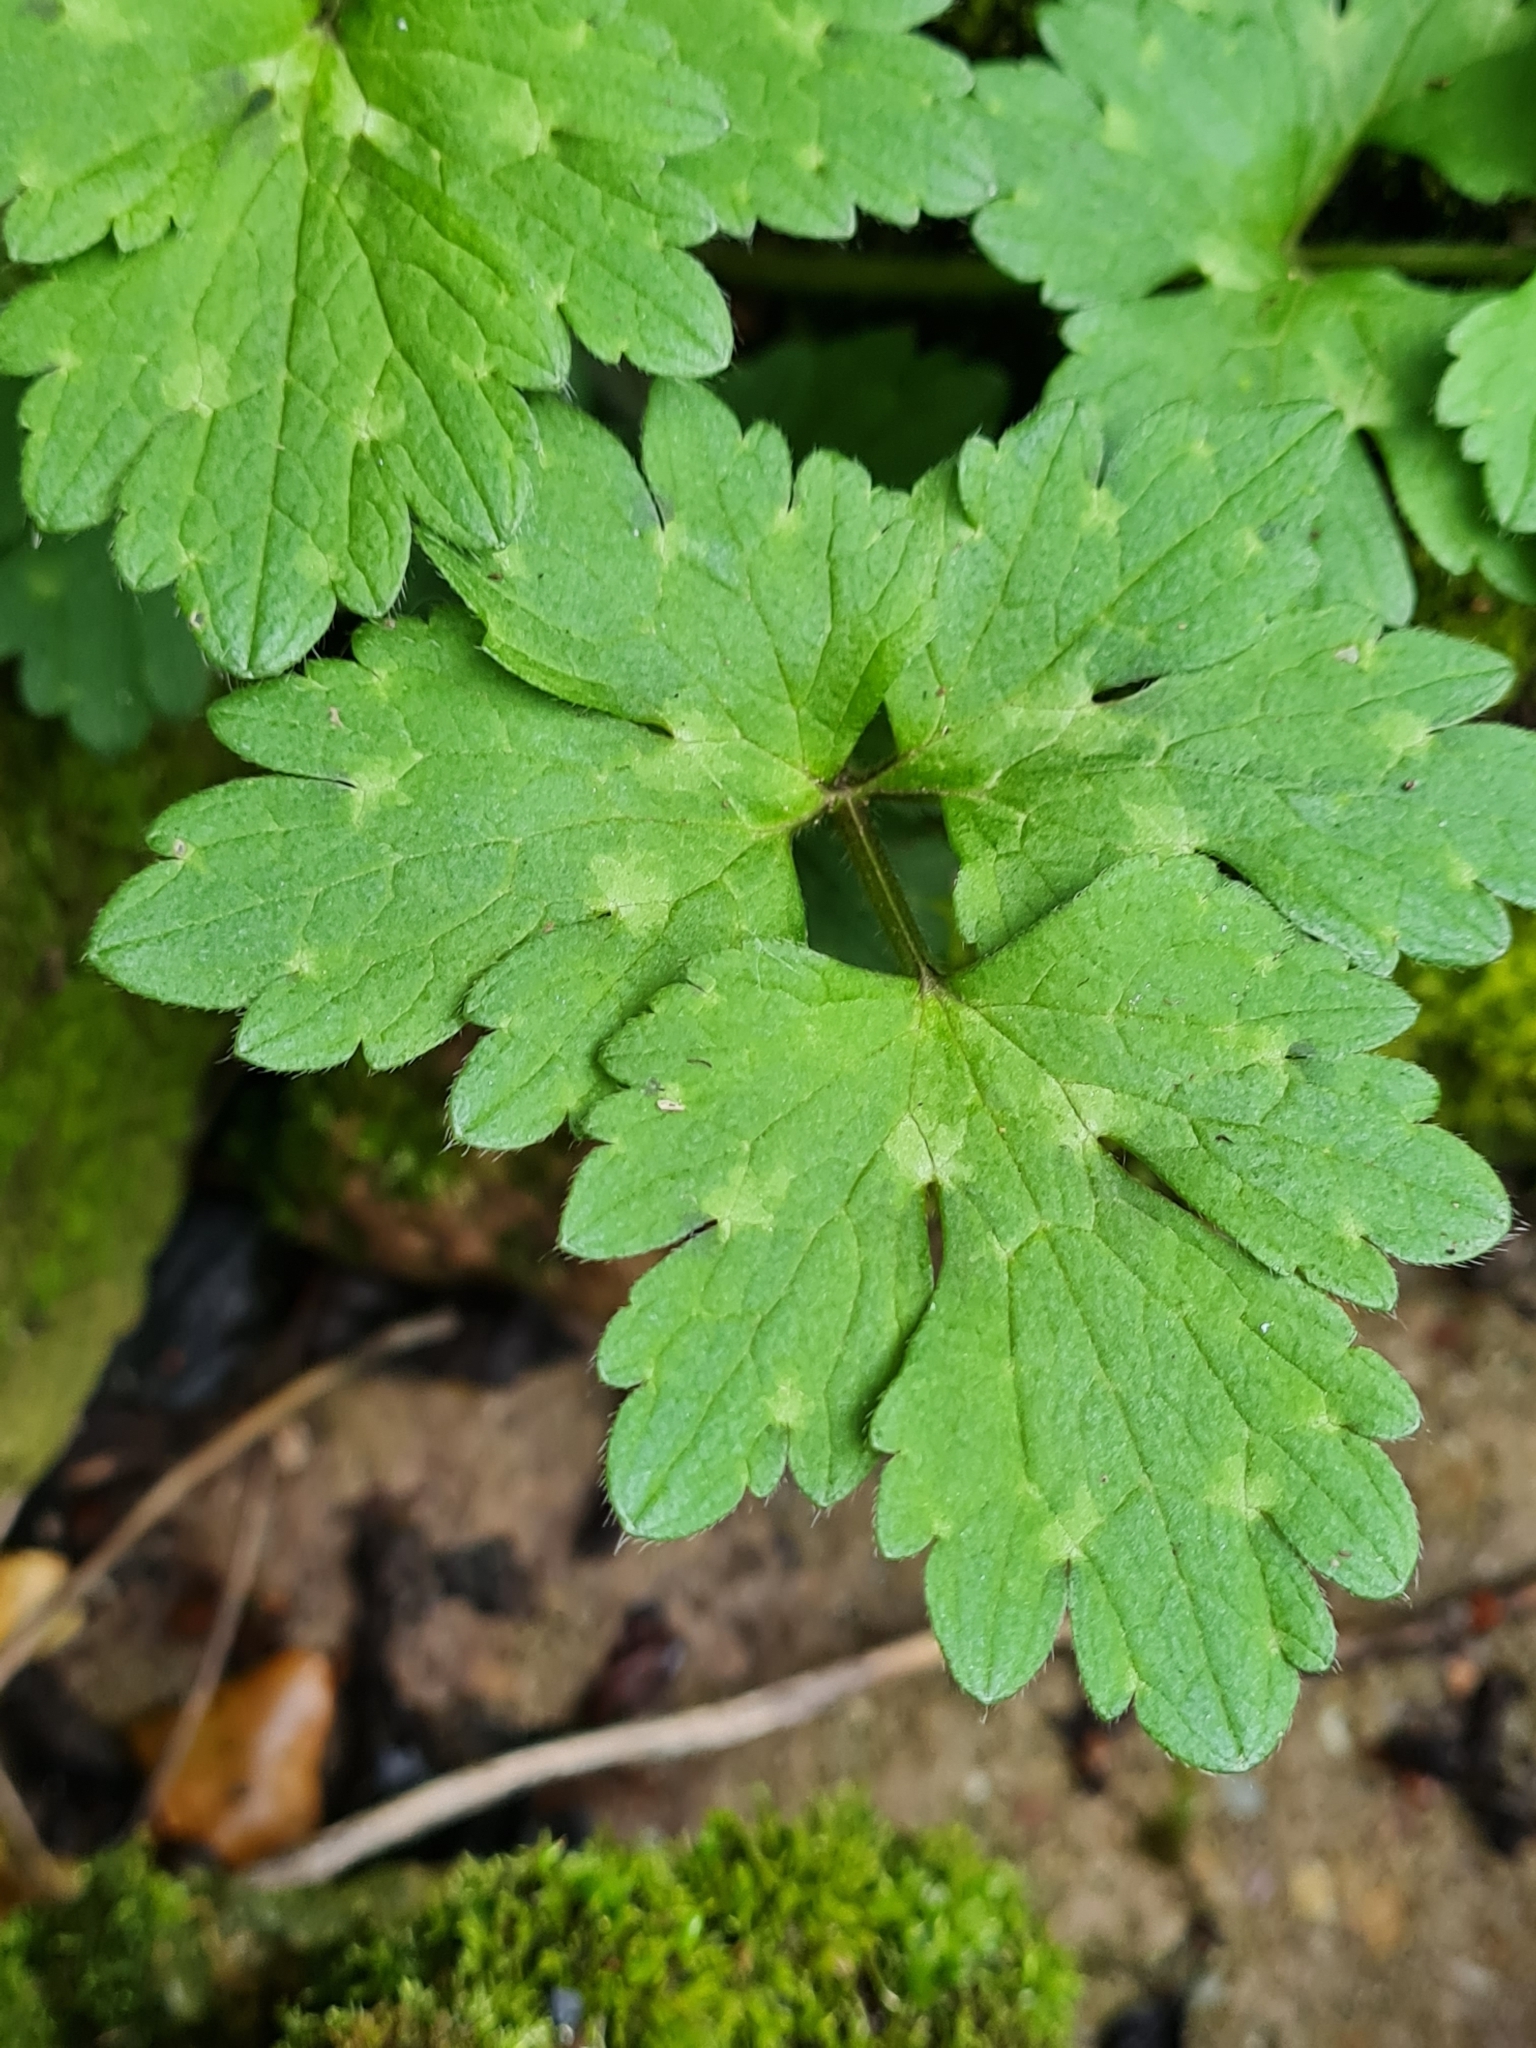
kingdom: Plantae
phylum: Tracheophyta
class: Magnoliopsida
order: Ranunculales
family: Ranunculaceae
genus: Ranunculus
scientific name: Ranunculus repens
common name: Creeping buttercup
